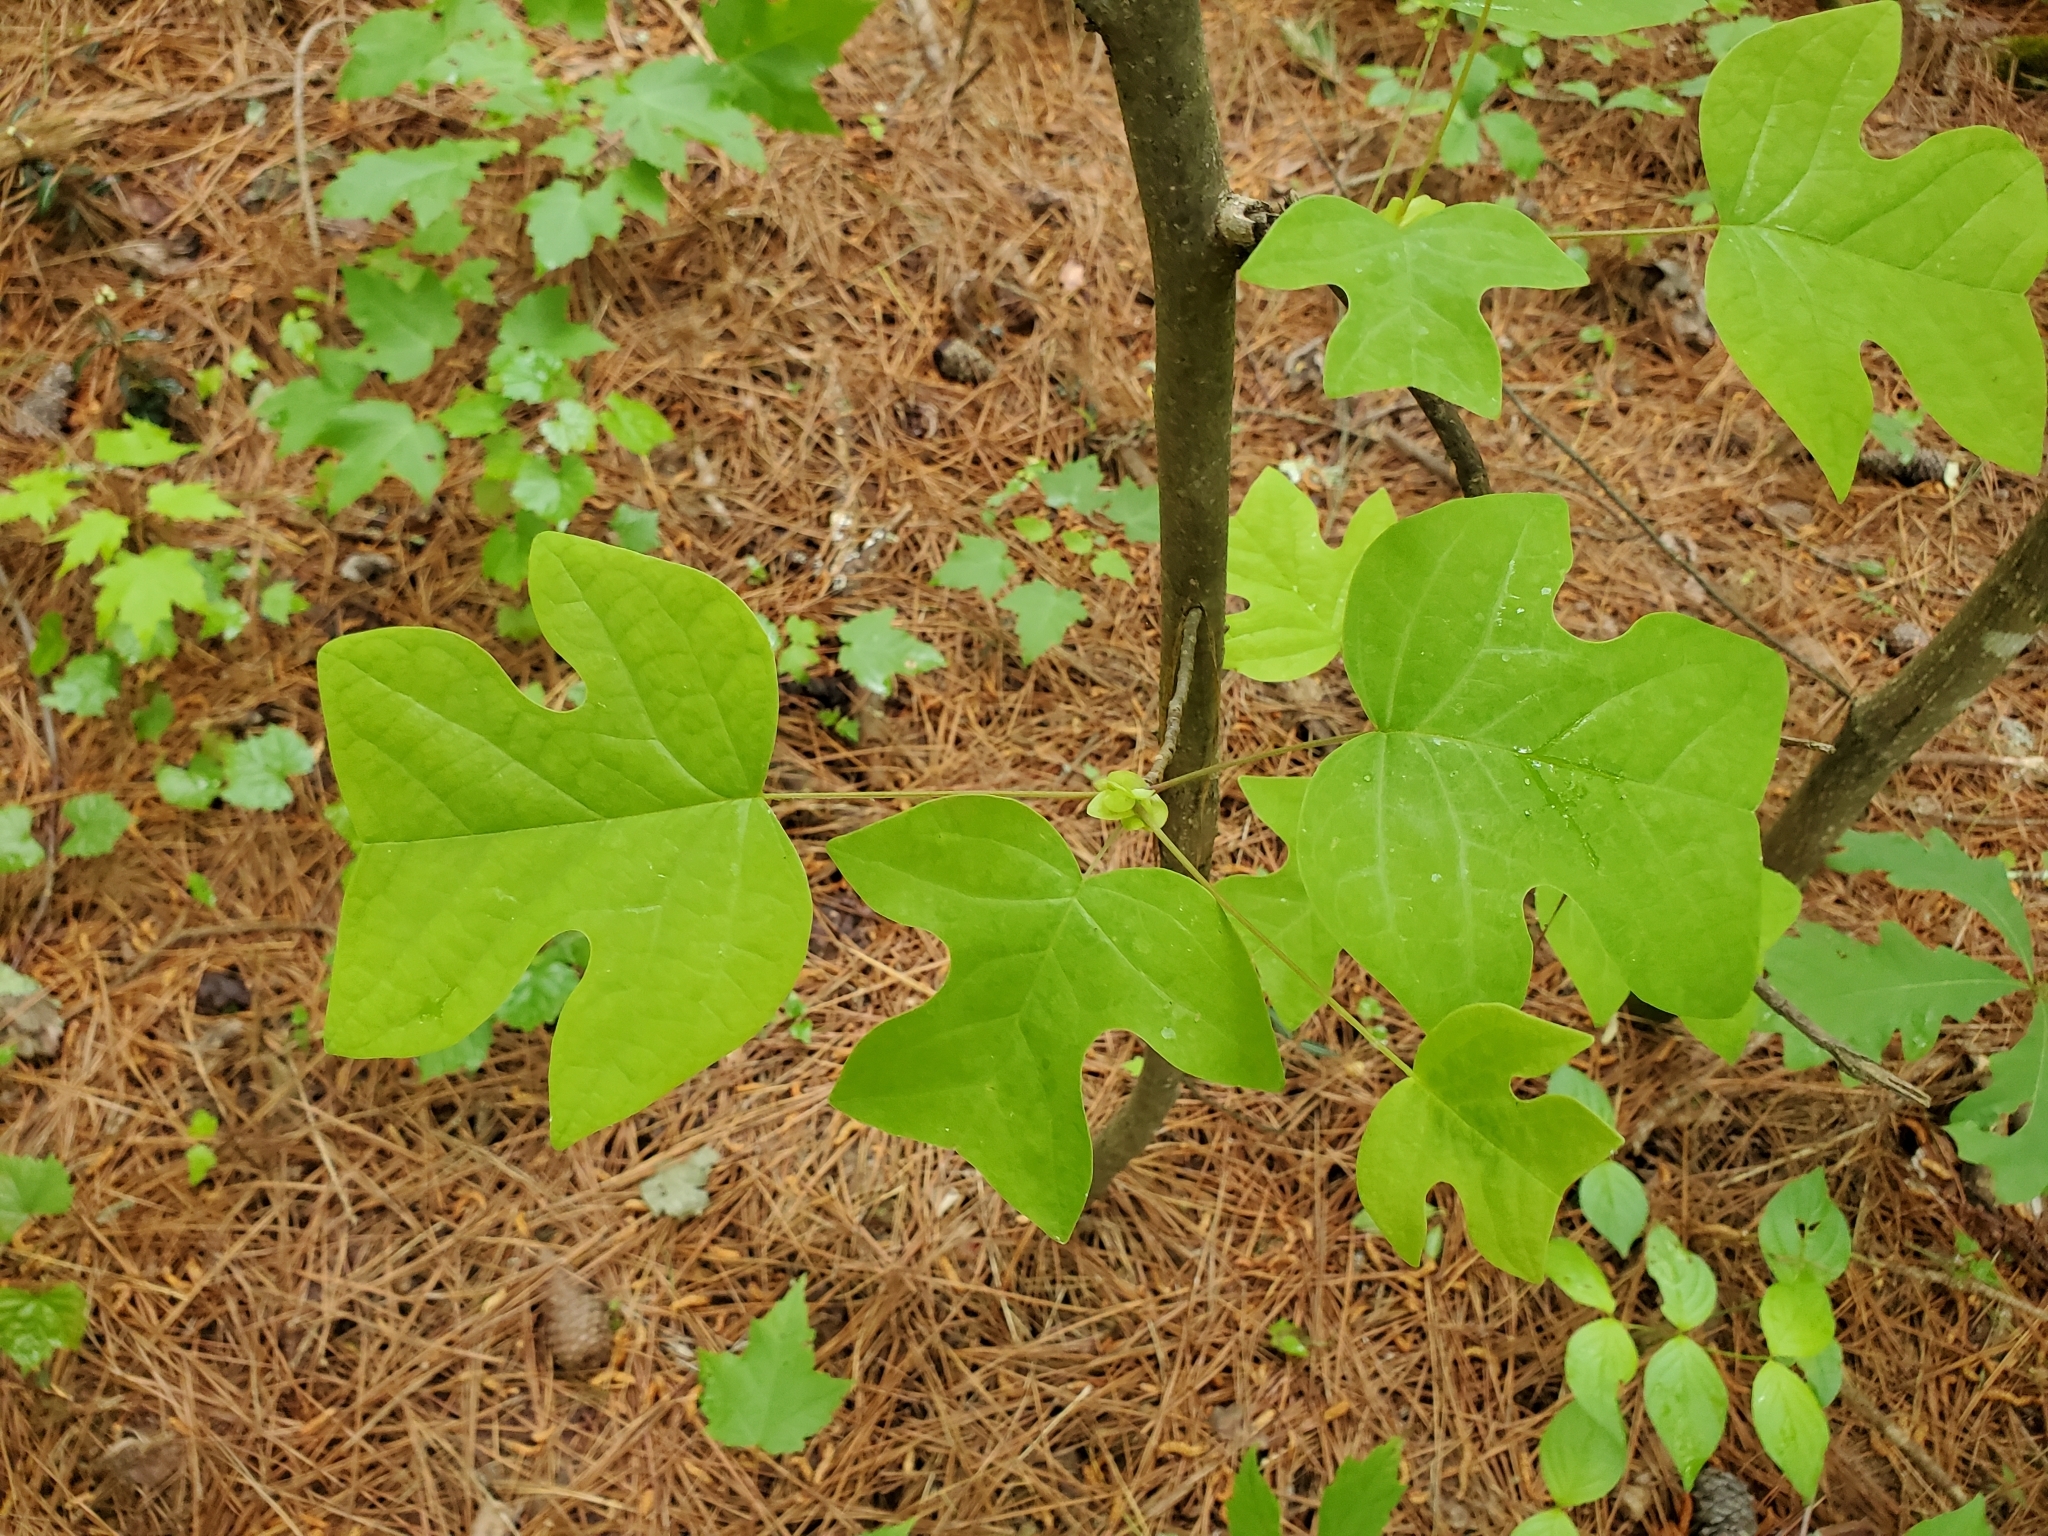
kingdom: Plantae
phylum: Tracheophyta
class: Magnoliopsida
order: Magnoliales
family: Magnoliaceae
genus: Liriodendron
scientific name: Liriodendron tulipifera
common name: Tulip tree
